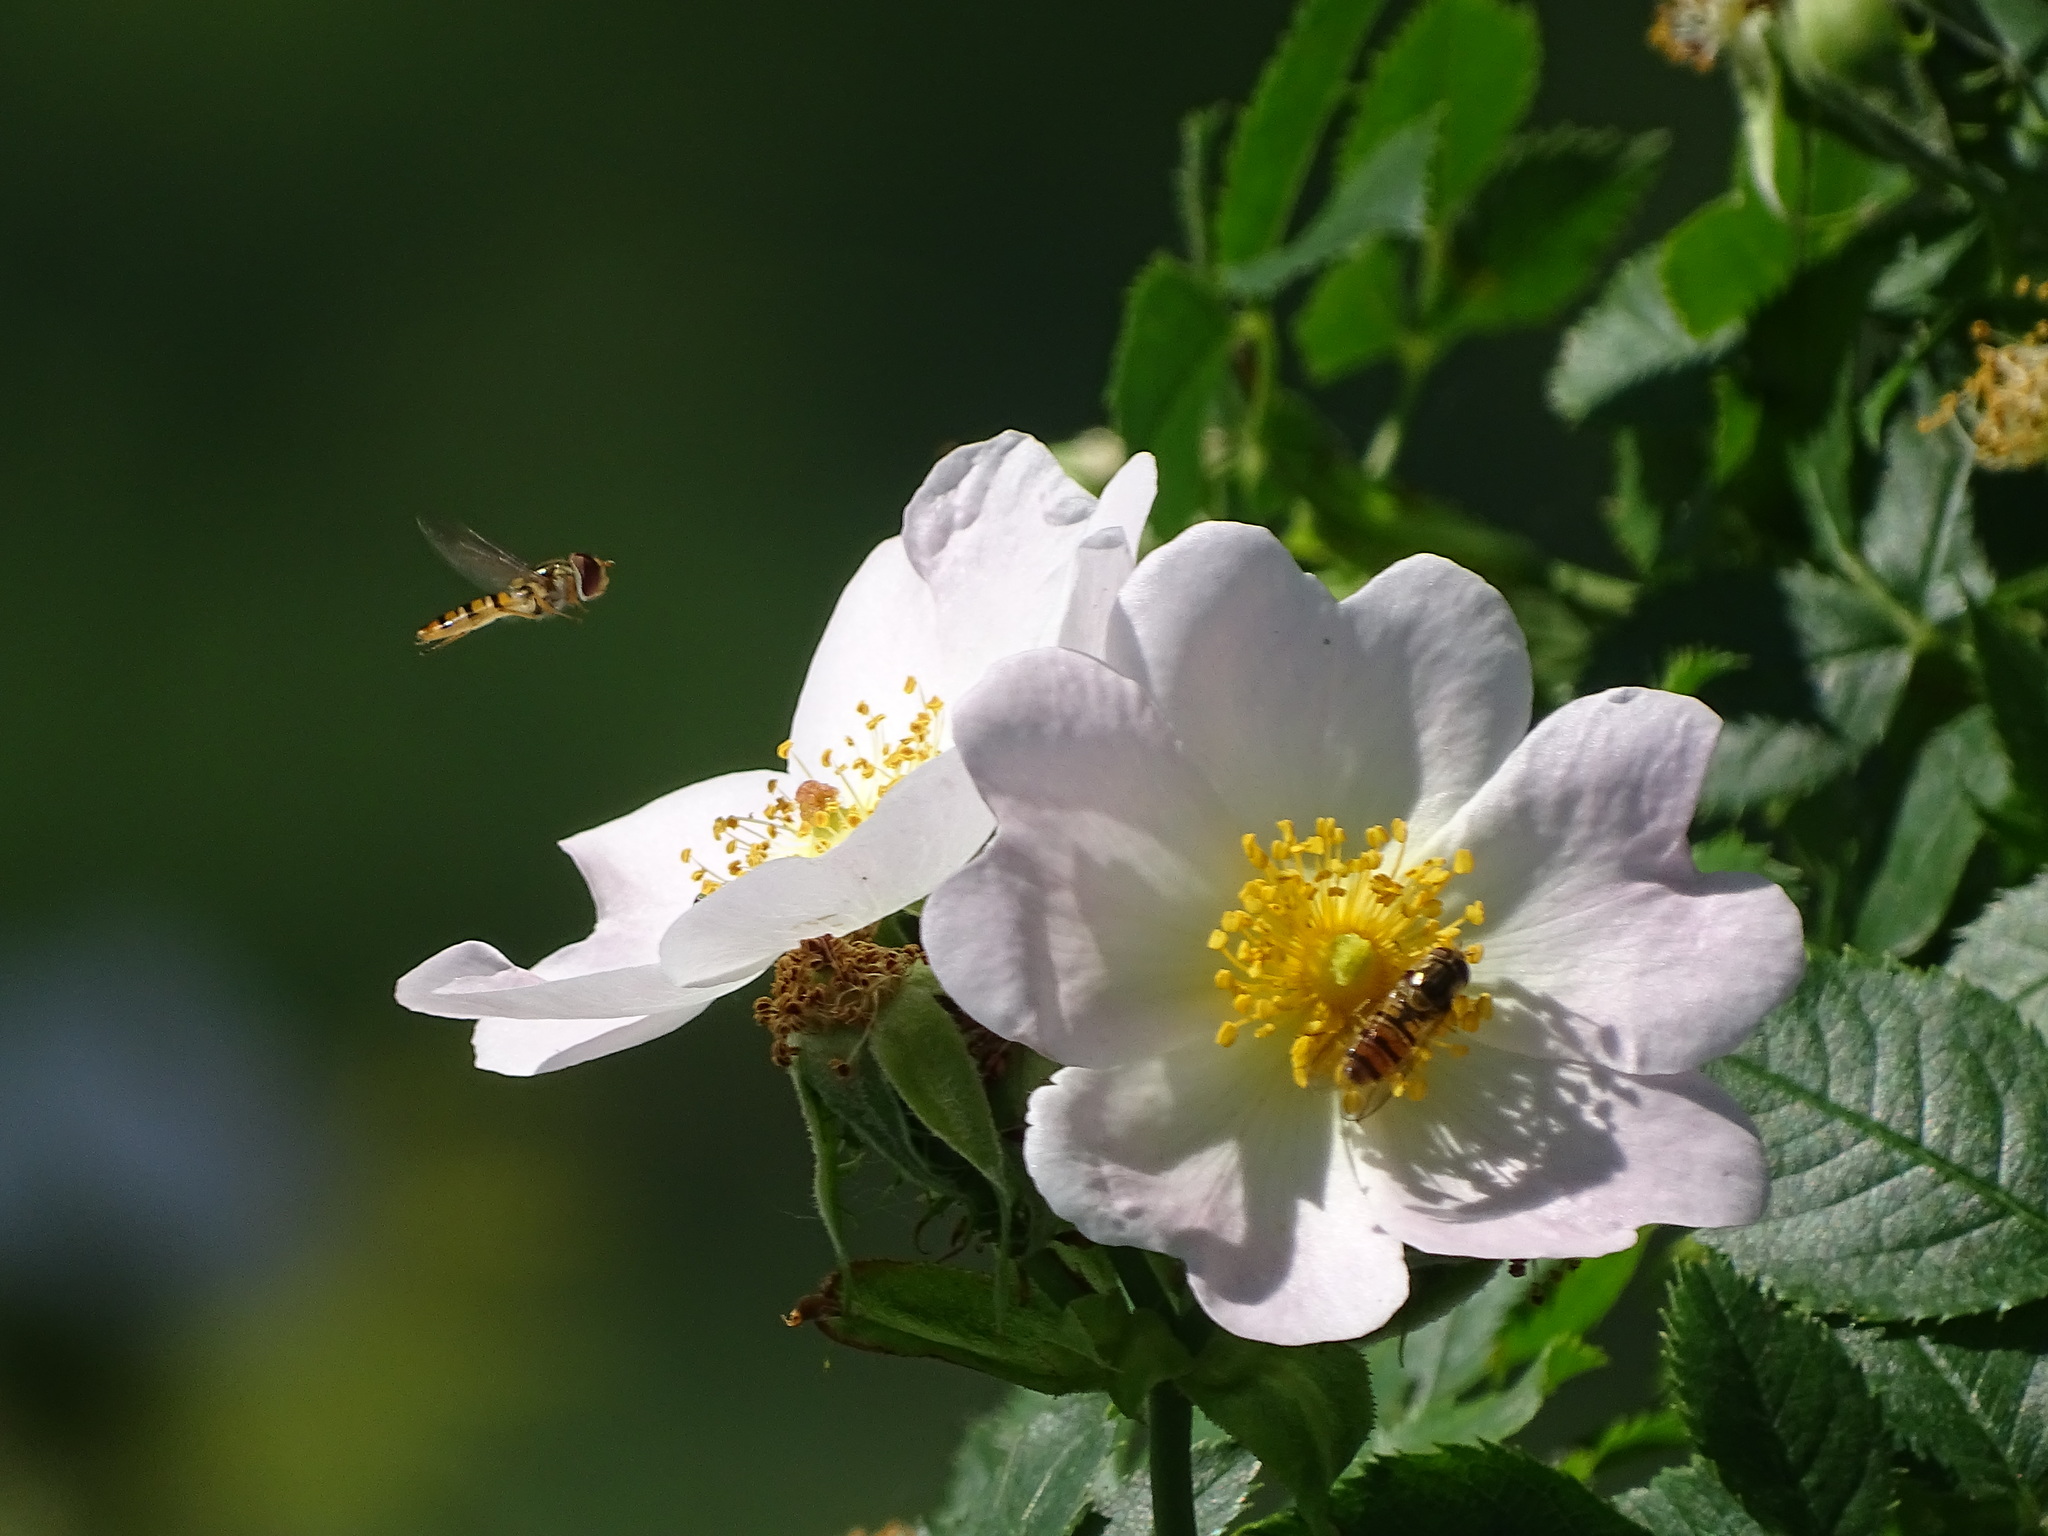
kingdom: Animalia
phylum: Arthropoda
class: Insecta
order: Diptera
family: Syrphidae
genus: Episyrphus
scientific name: Episyrphus balteatus
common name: Marmalade hoverfly
